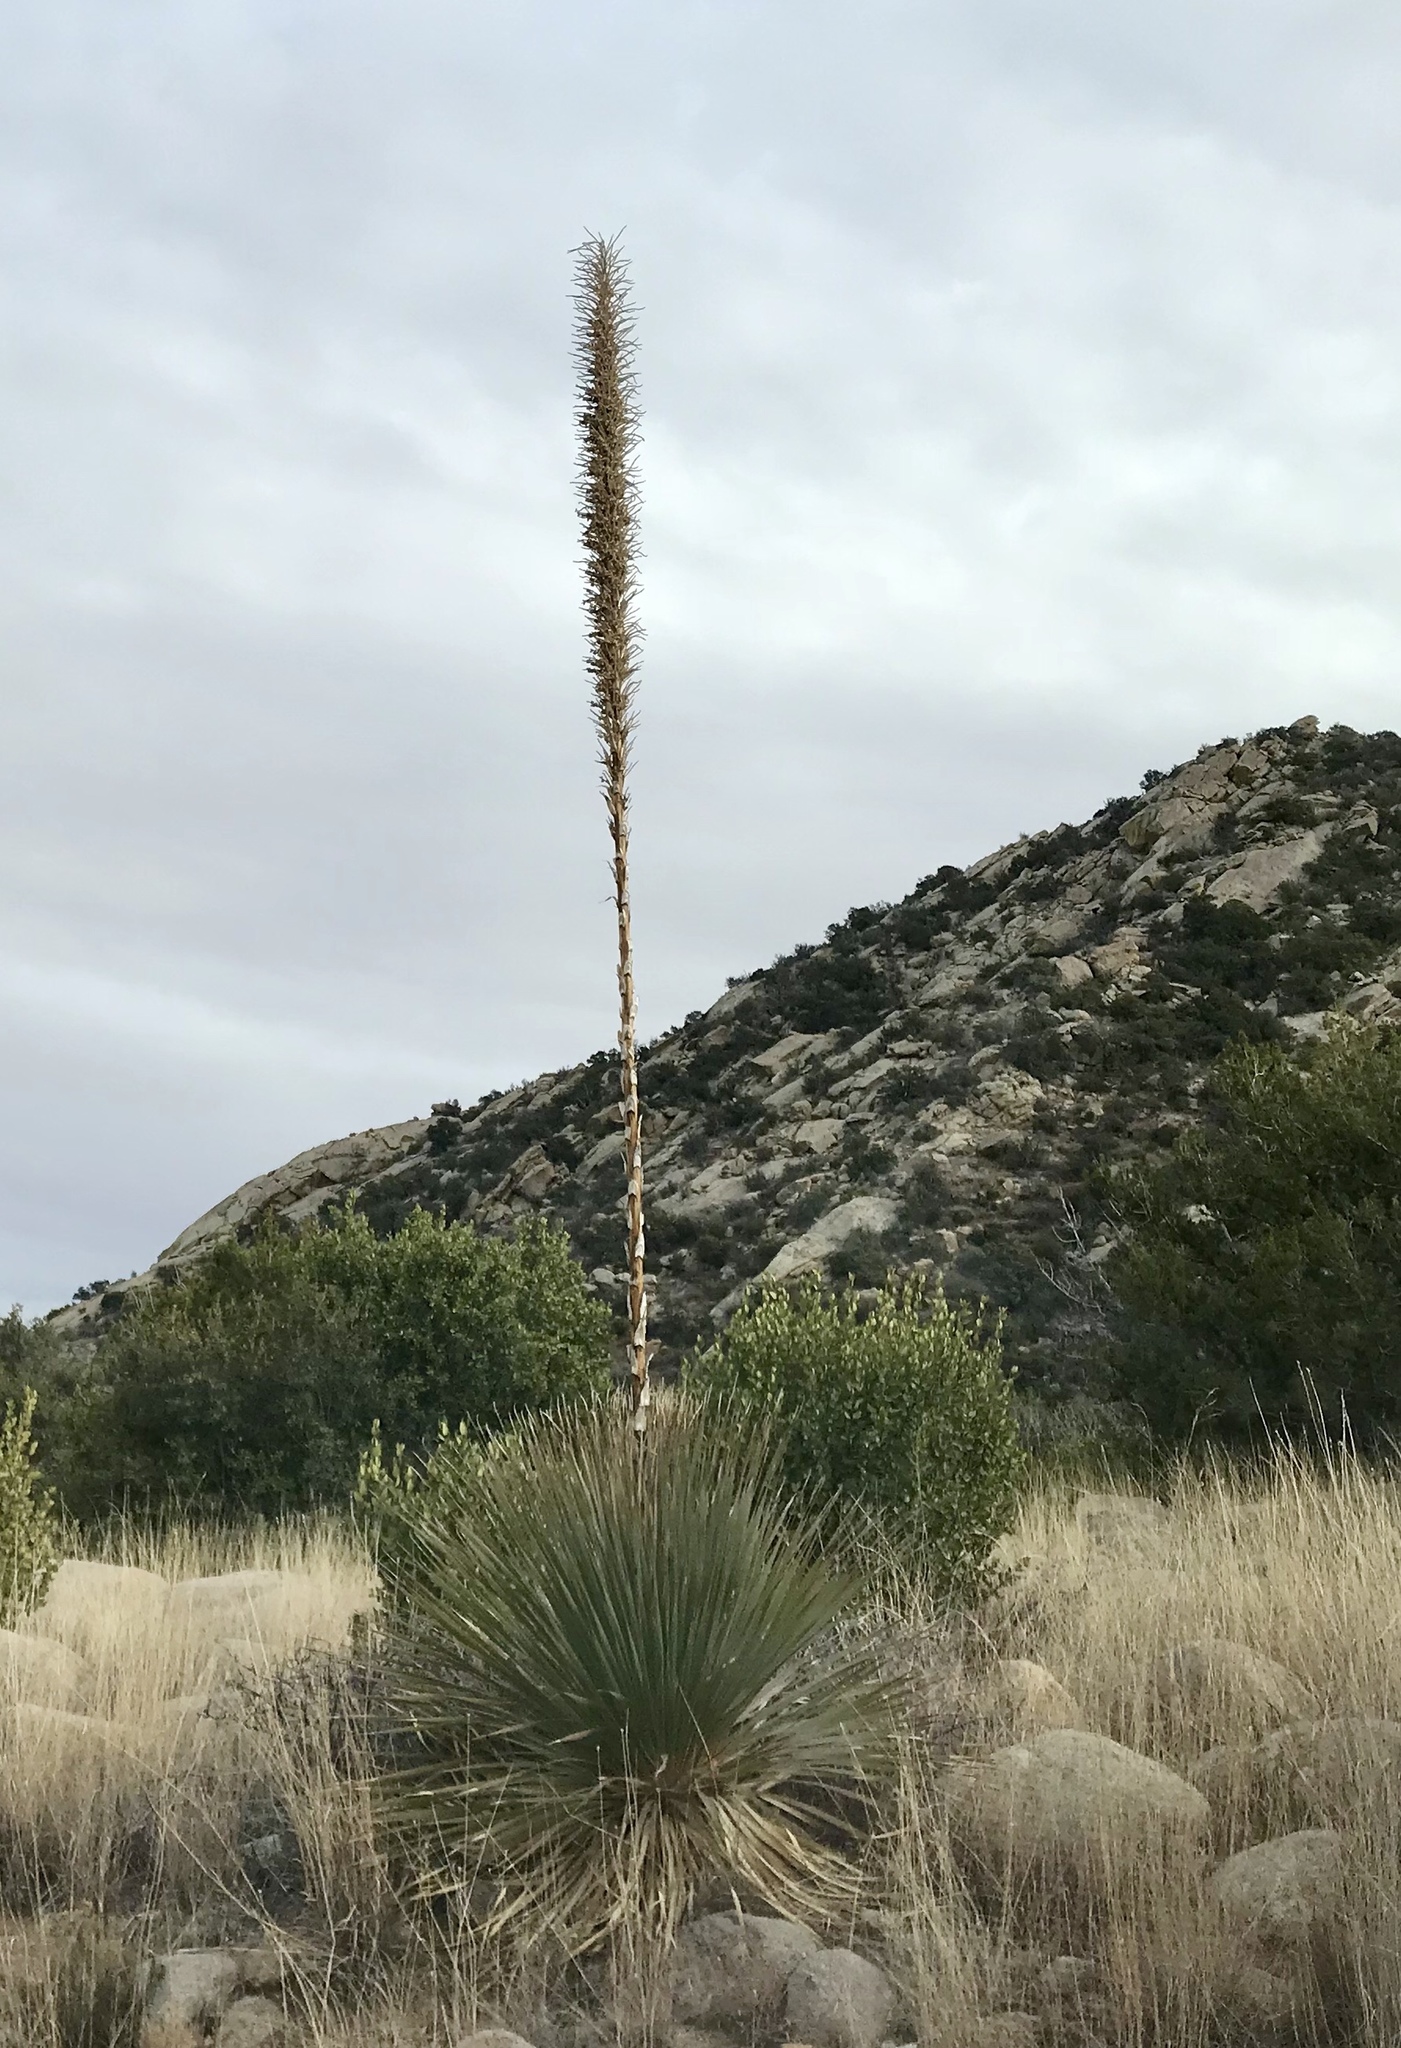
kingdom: Plantae
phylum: Tracheophyta
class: Liliopsida
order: Asparagales
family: Asparagaceae
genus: Dasylirion
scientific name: Dasylirion wheeleri
